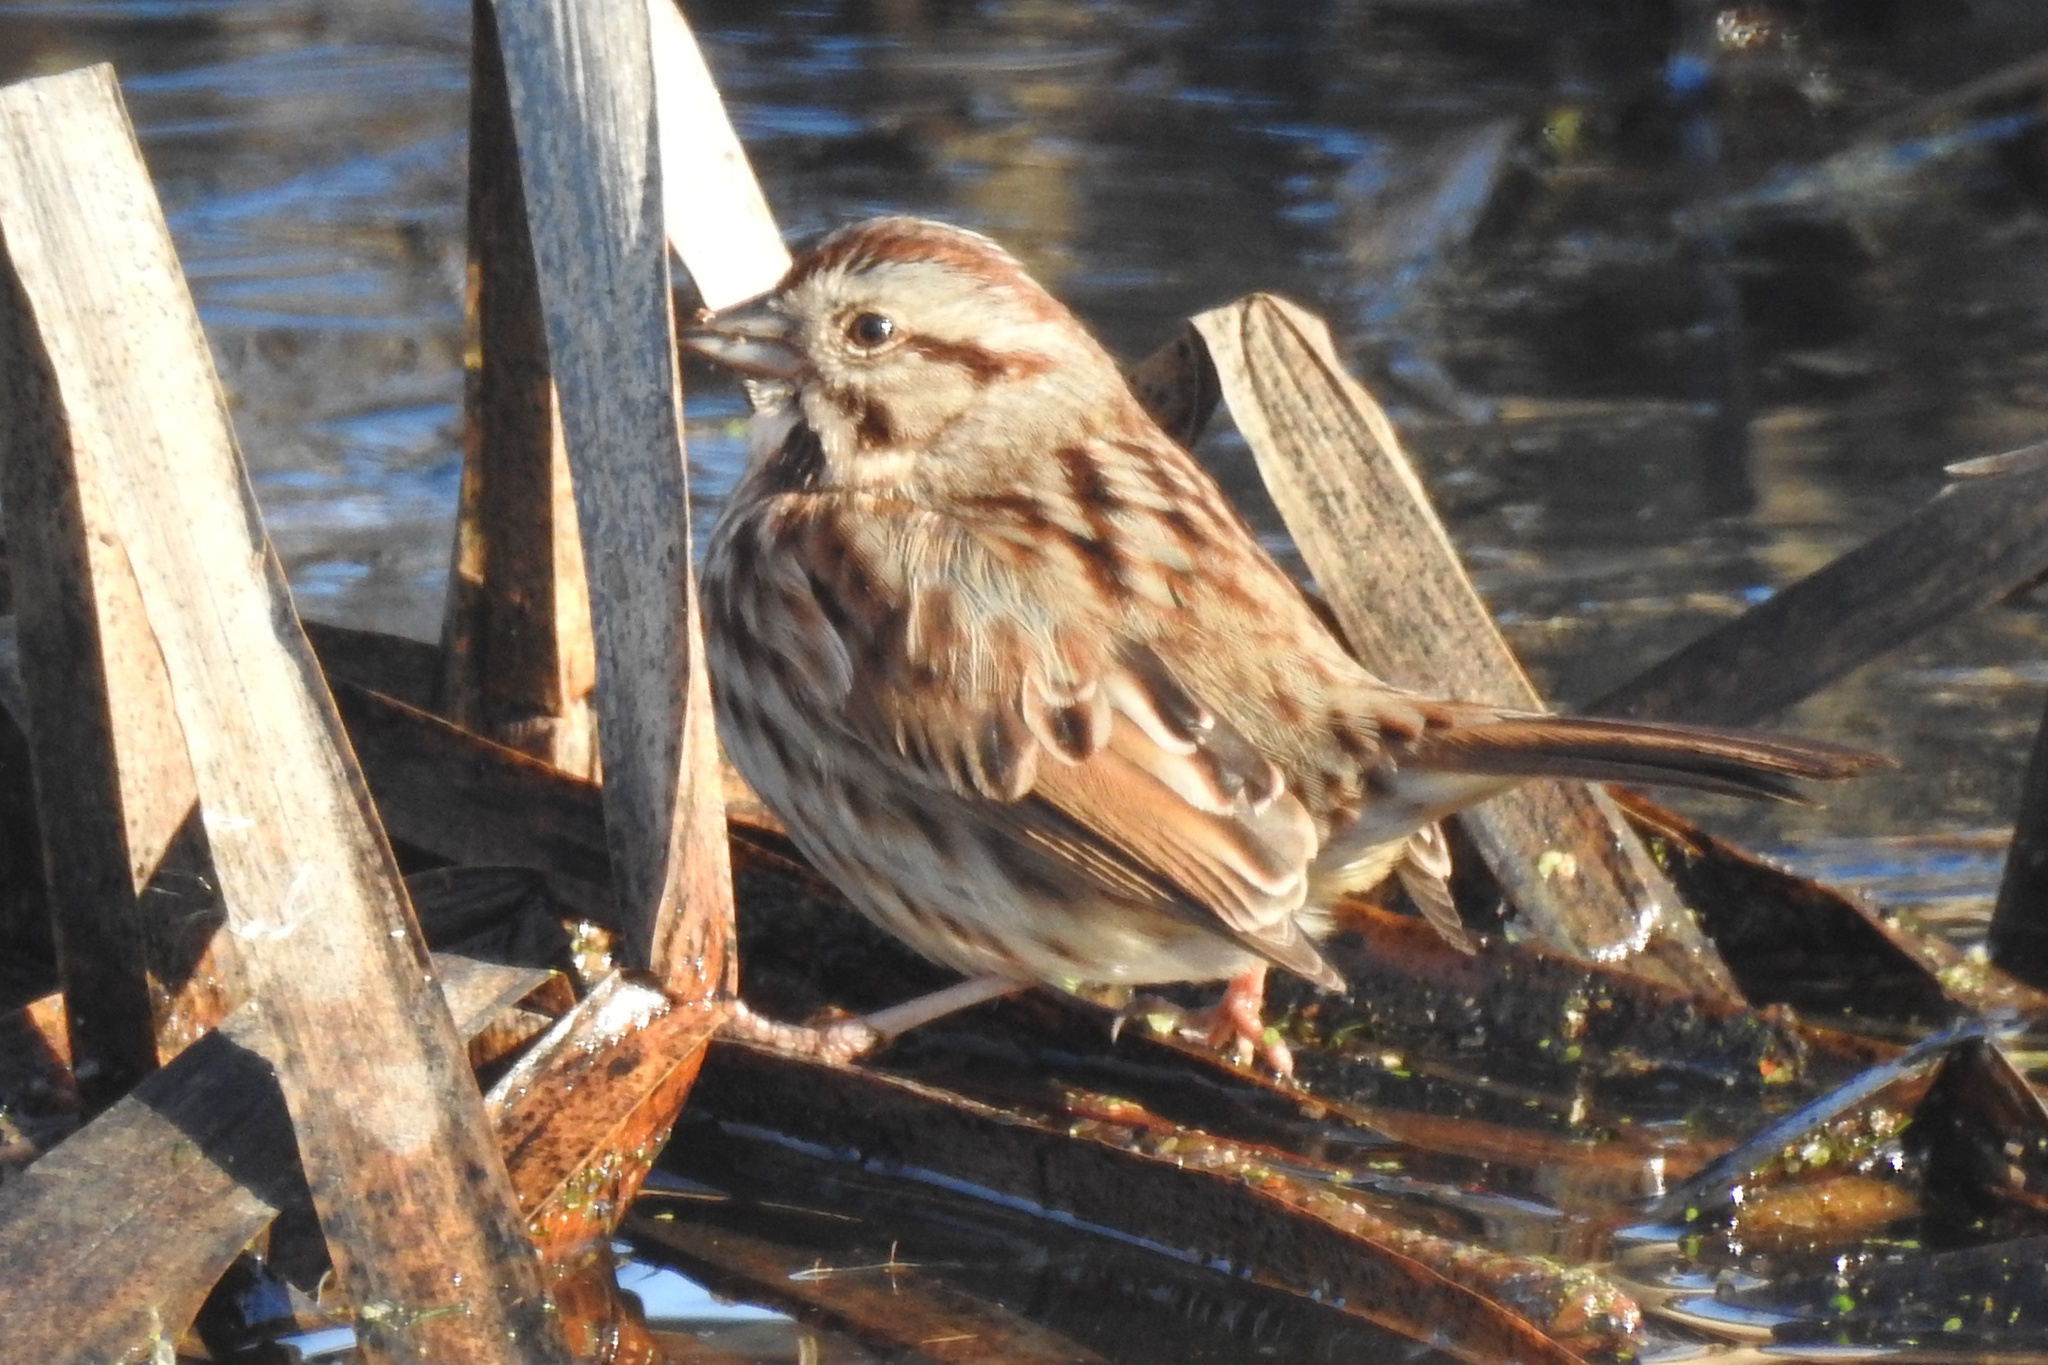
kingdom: Animalia
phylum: Chordata
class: Aves
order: Passeriformes
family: Passerellidae
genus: Melospiza
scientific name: Melospiza melodia
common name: Song sparrow
